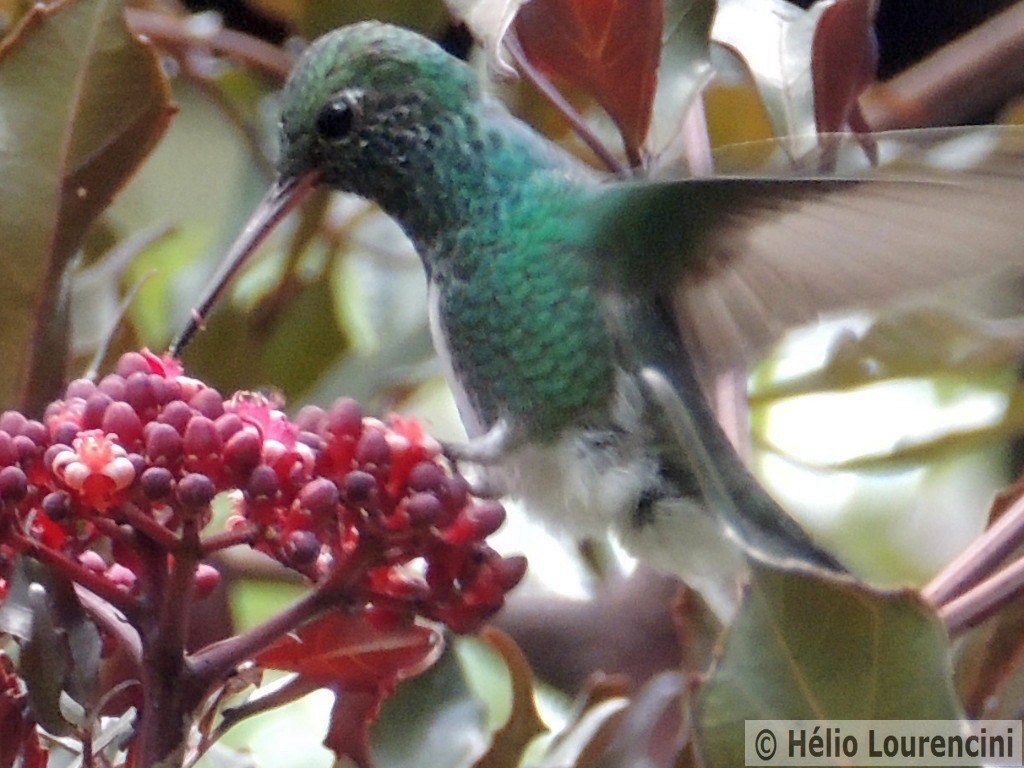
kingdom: Animalia
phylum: Chordata
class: Aves
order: Apodiformes
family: Trochilidae
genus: Chionomesa
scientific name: Chionomesa fimbriata
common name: Glittering-throated emerald
